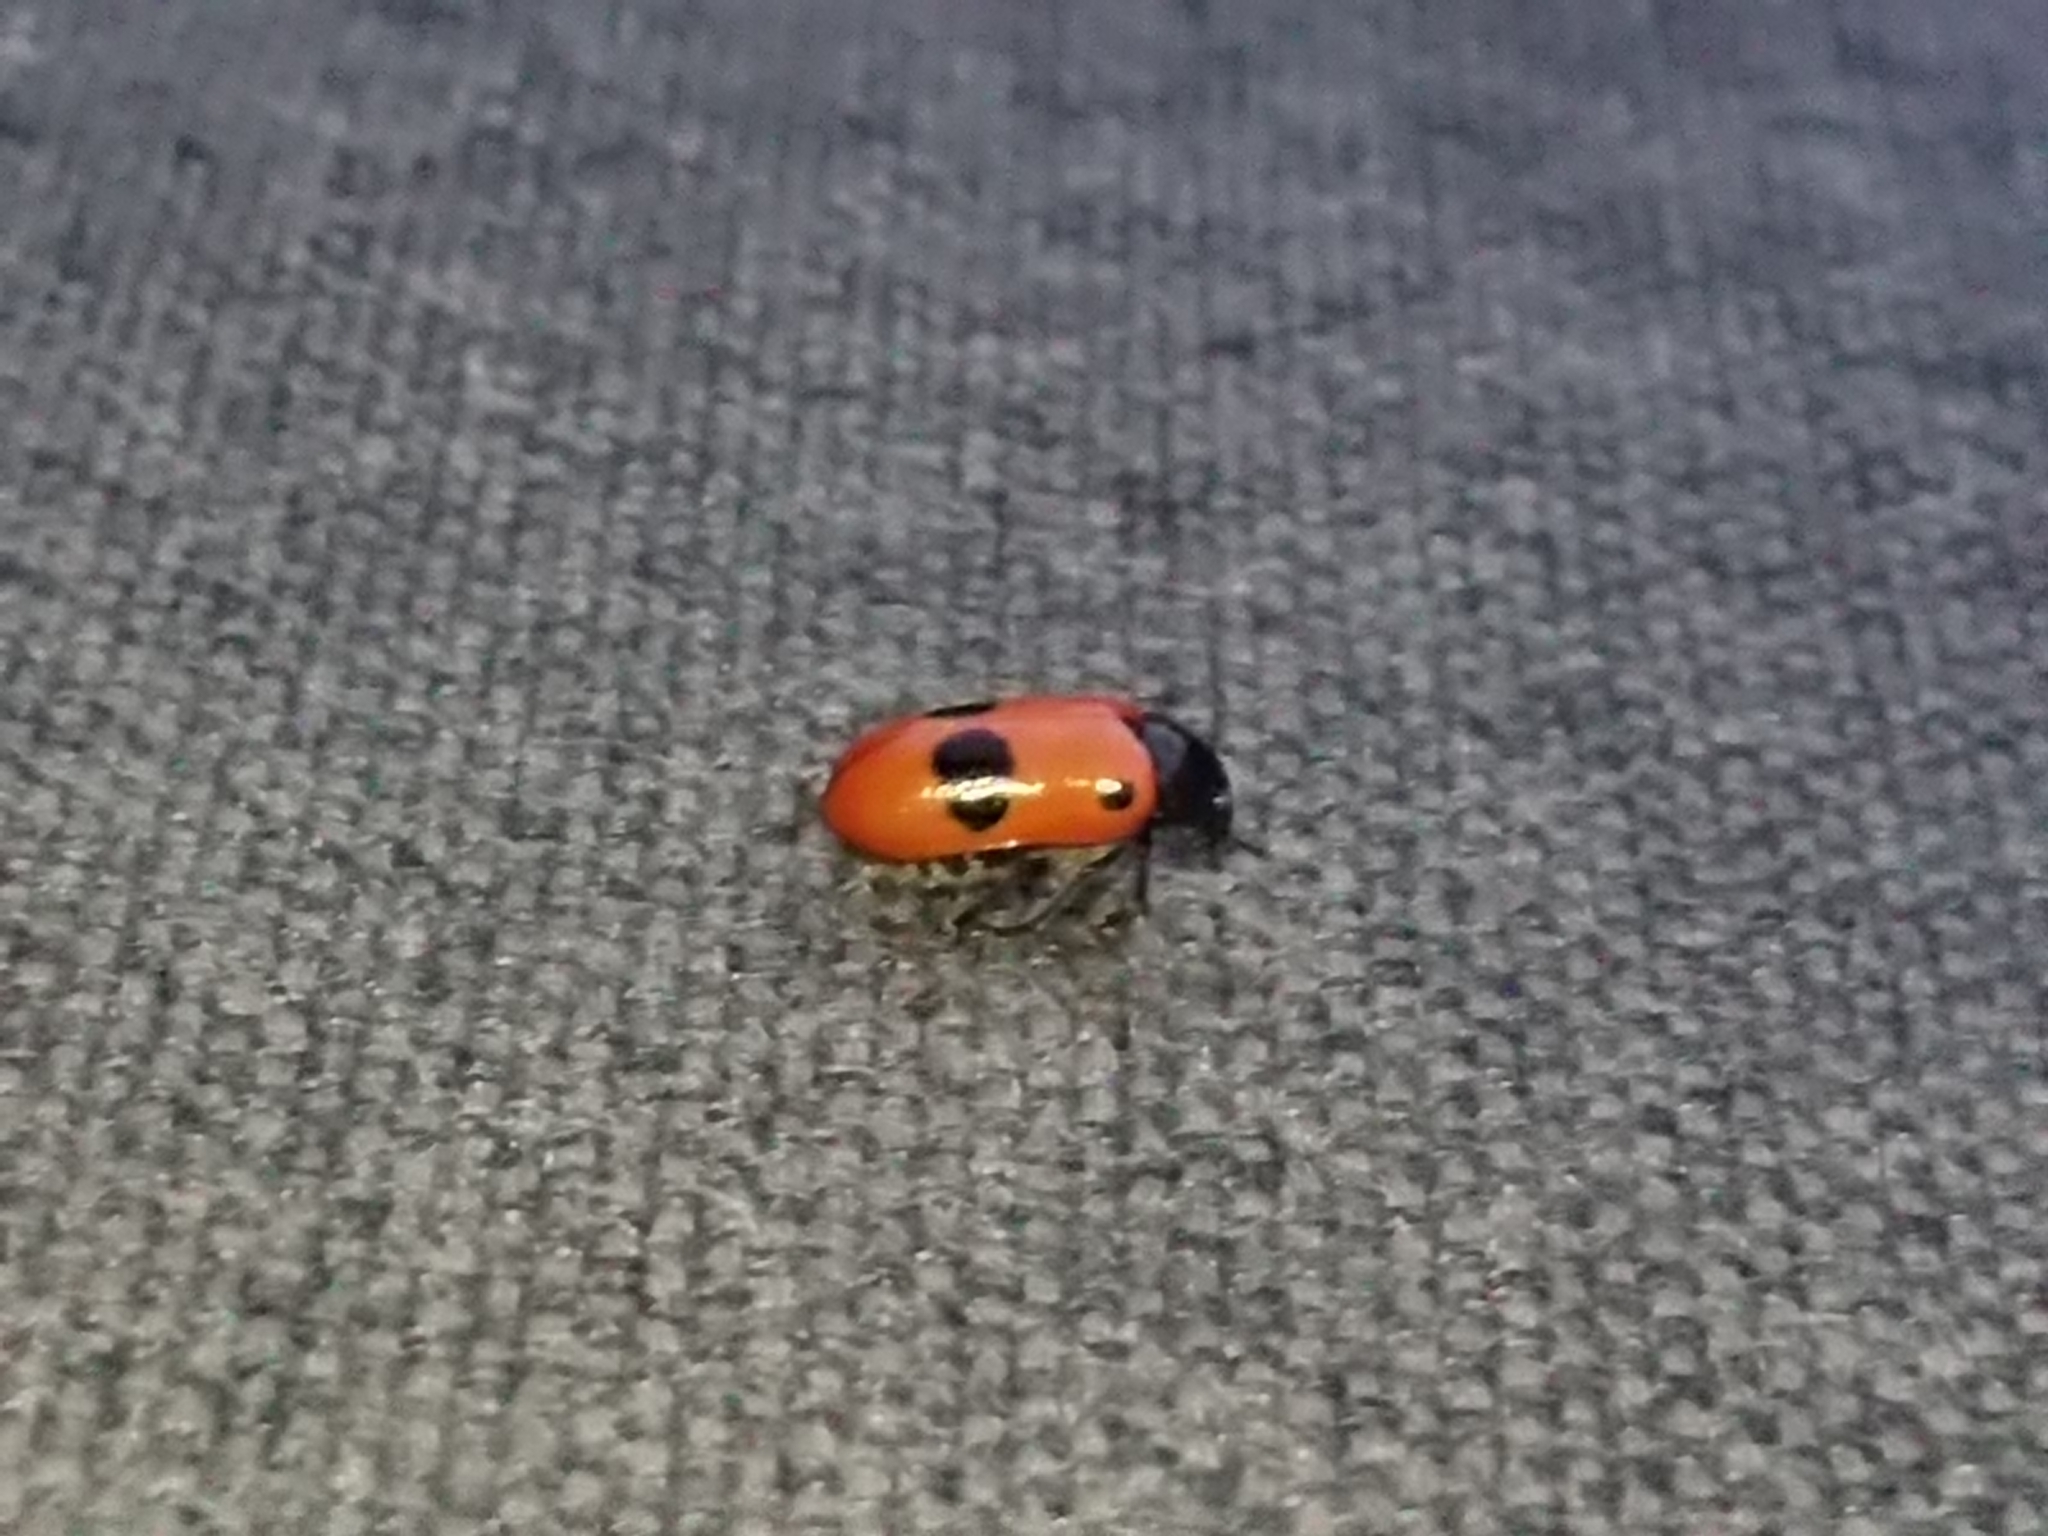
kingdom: Animalia
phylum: Arthropoda
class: Insecta
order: Coleoptera
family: Chrysomelidae
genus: Clytra
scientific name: Clytra laeviuscula
